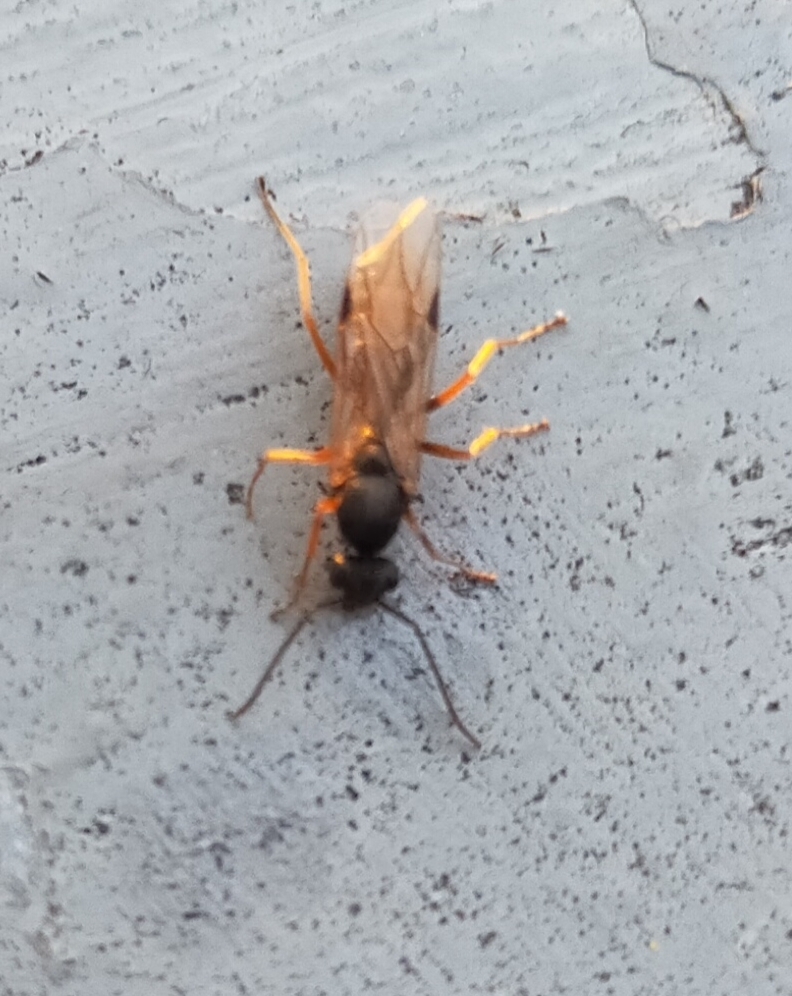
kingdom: Animalia
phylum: Arthropoda
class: Insecta
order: Hymenoptera
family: Formicidae
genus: Formica
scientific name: Formica
